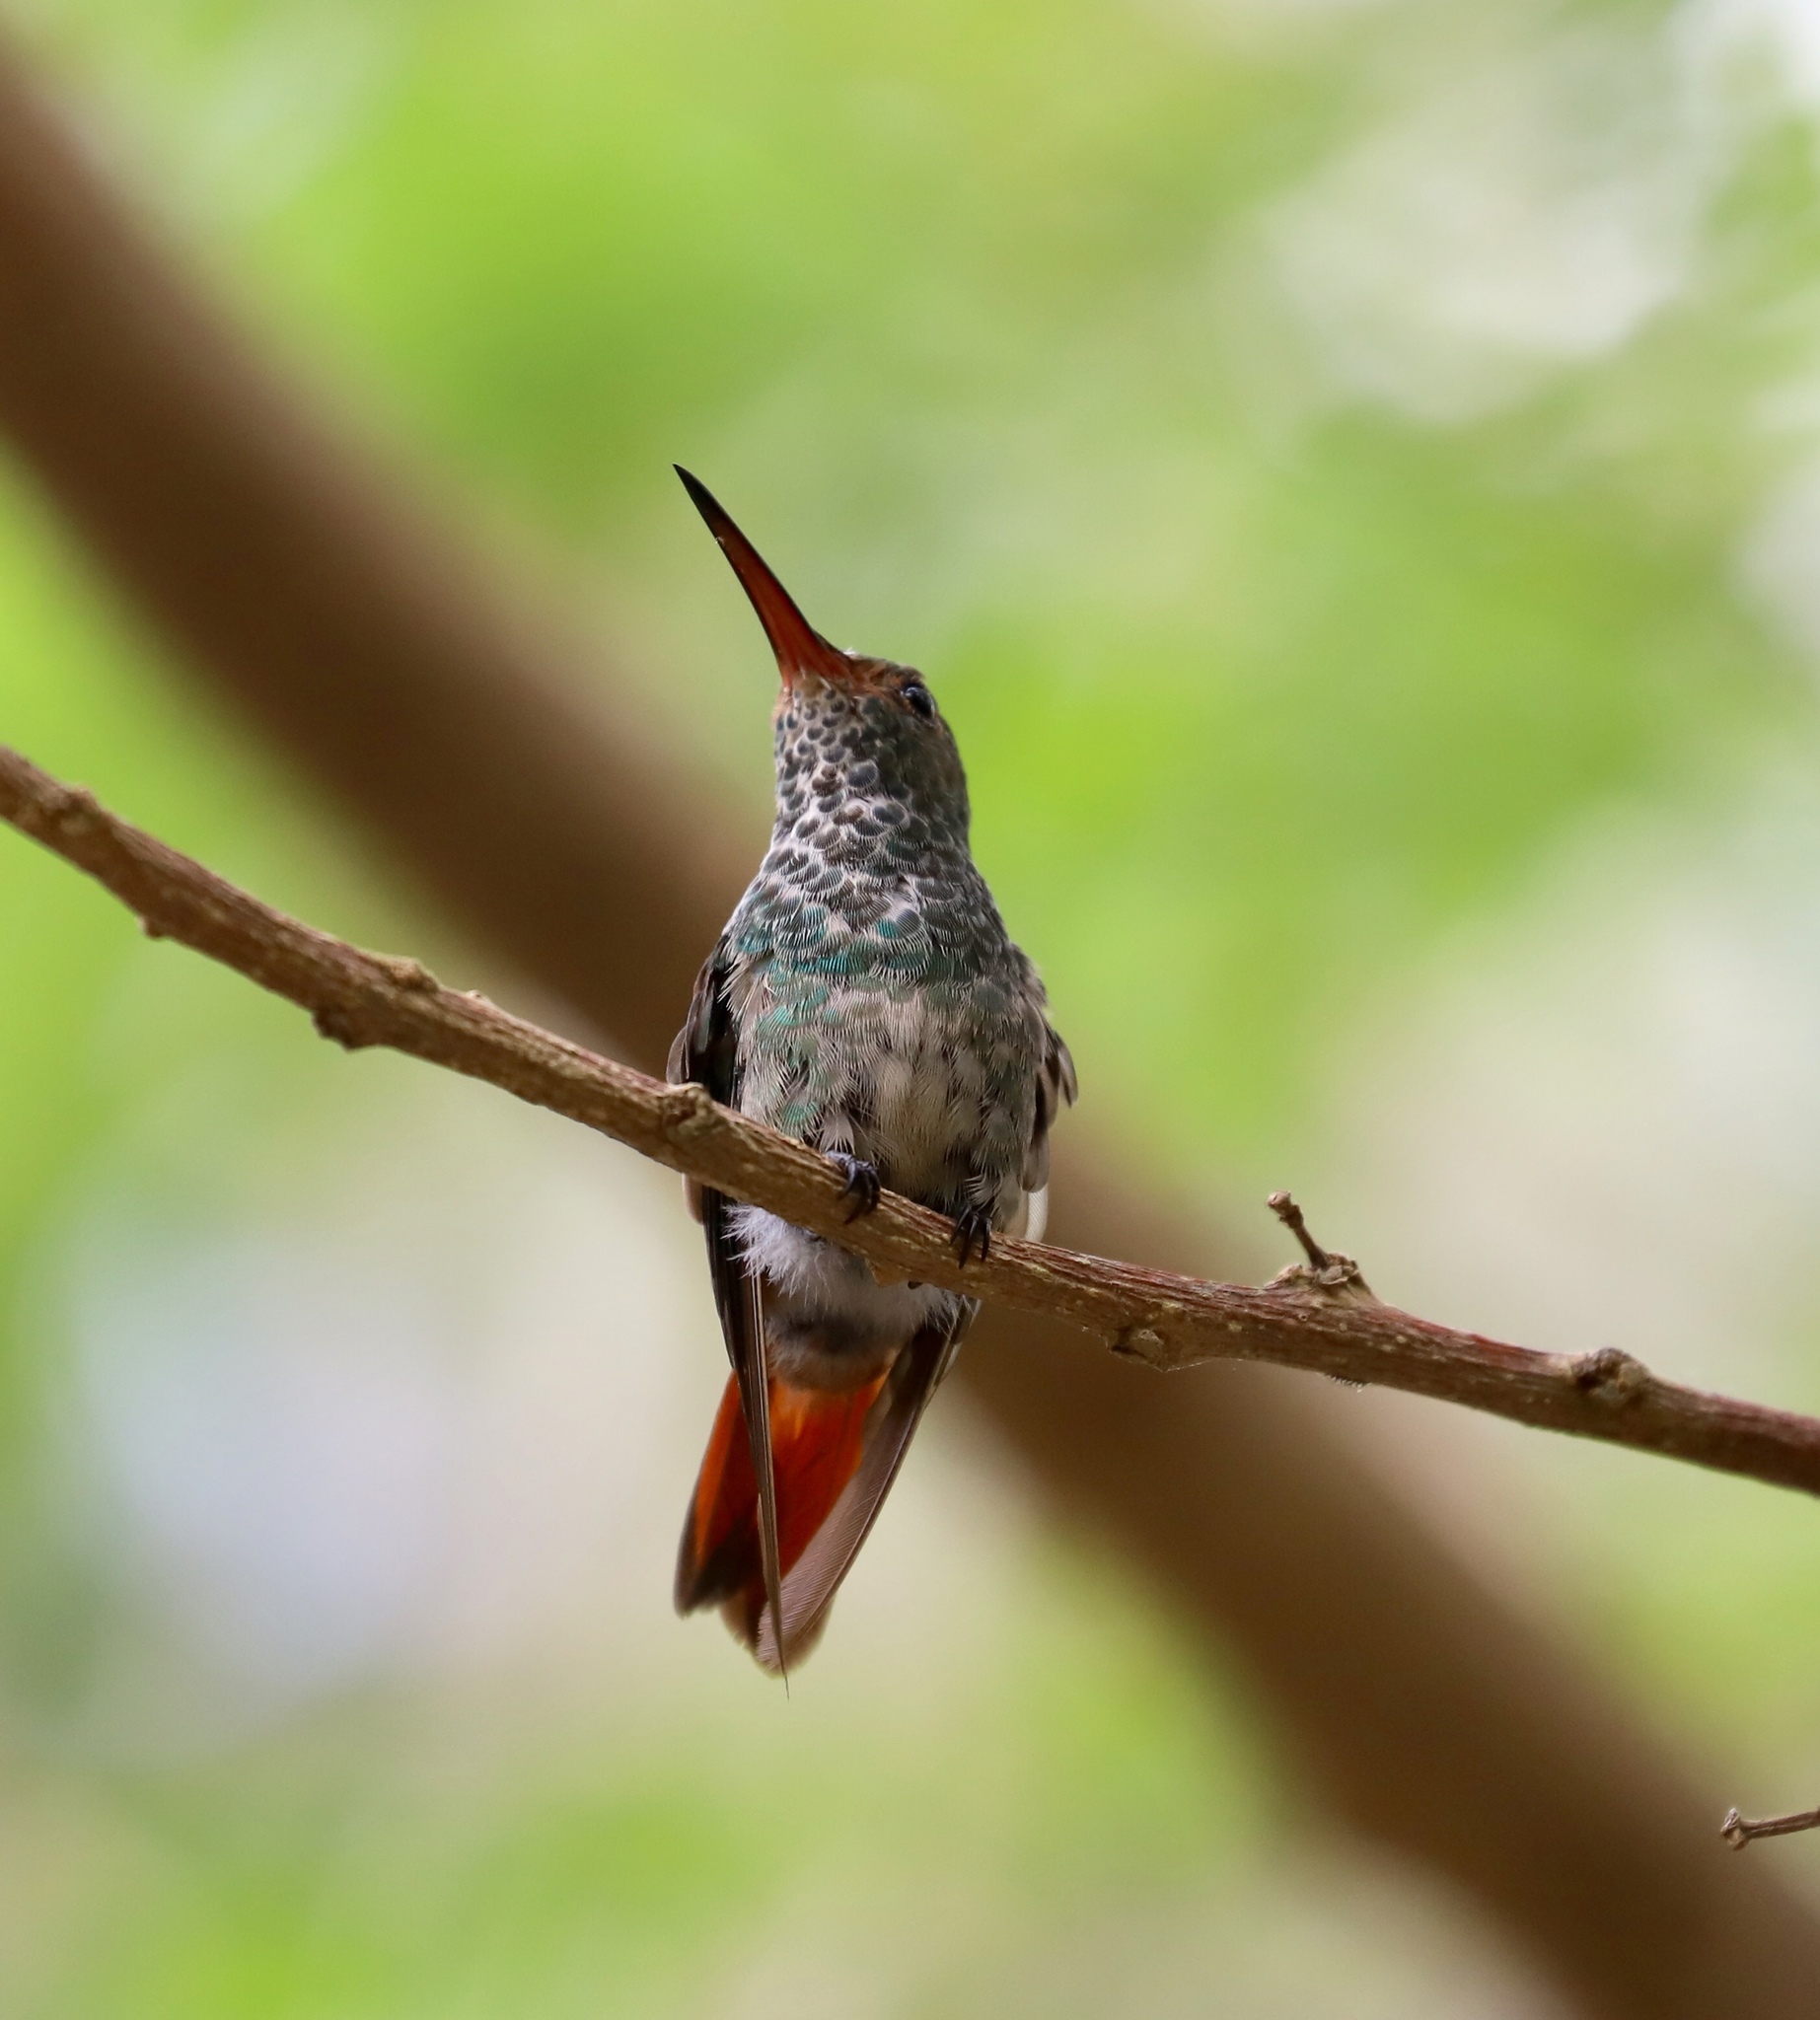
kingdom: Animalia
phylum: Chordata
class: Aves
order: Apodiformes
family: Trochilidae
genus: Amazilia
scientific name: Amazilia tzacatl
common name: Rufous-tailed hummingbird
